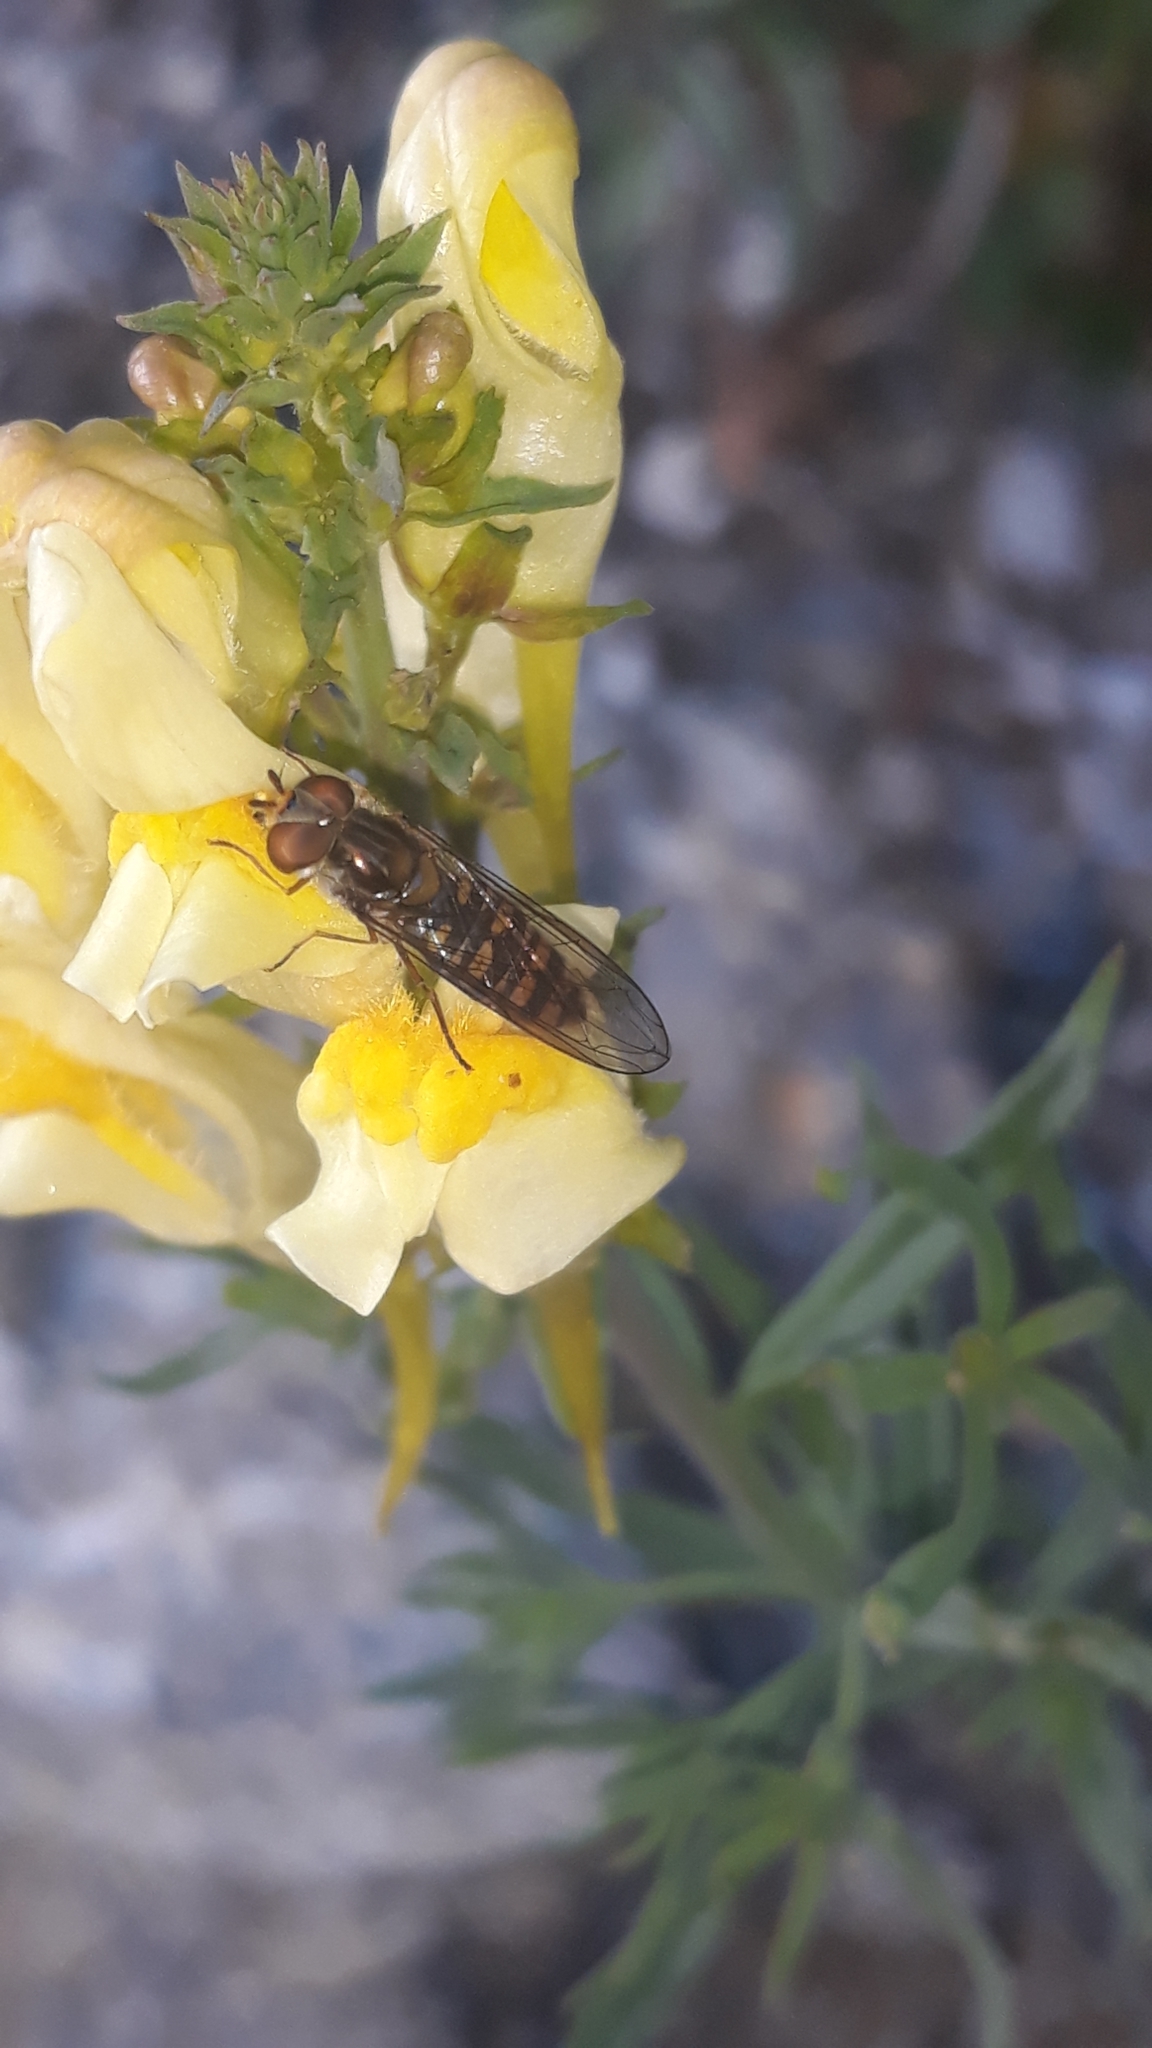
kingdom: Animalia
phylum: Arthropoda
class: Insecta
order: Diptera
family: Syrphidae
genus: Episyrphus
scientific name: Episyrphus balteatus
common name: Marmalade hoverfly
